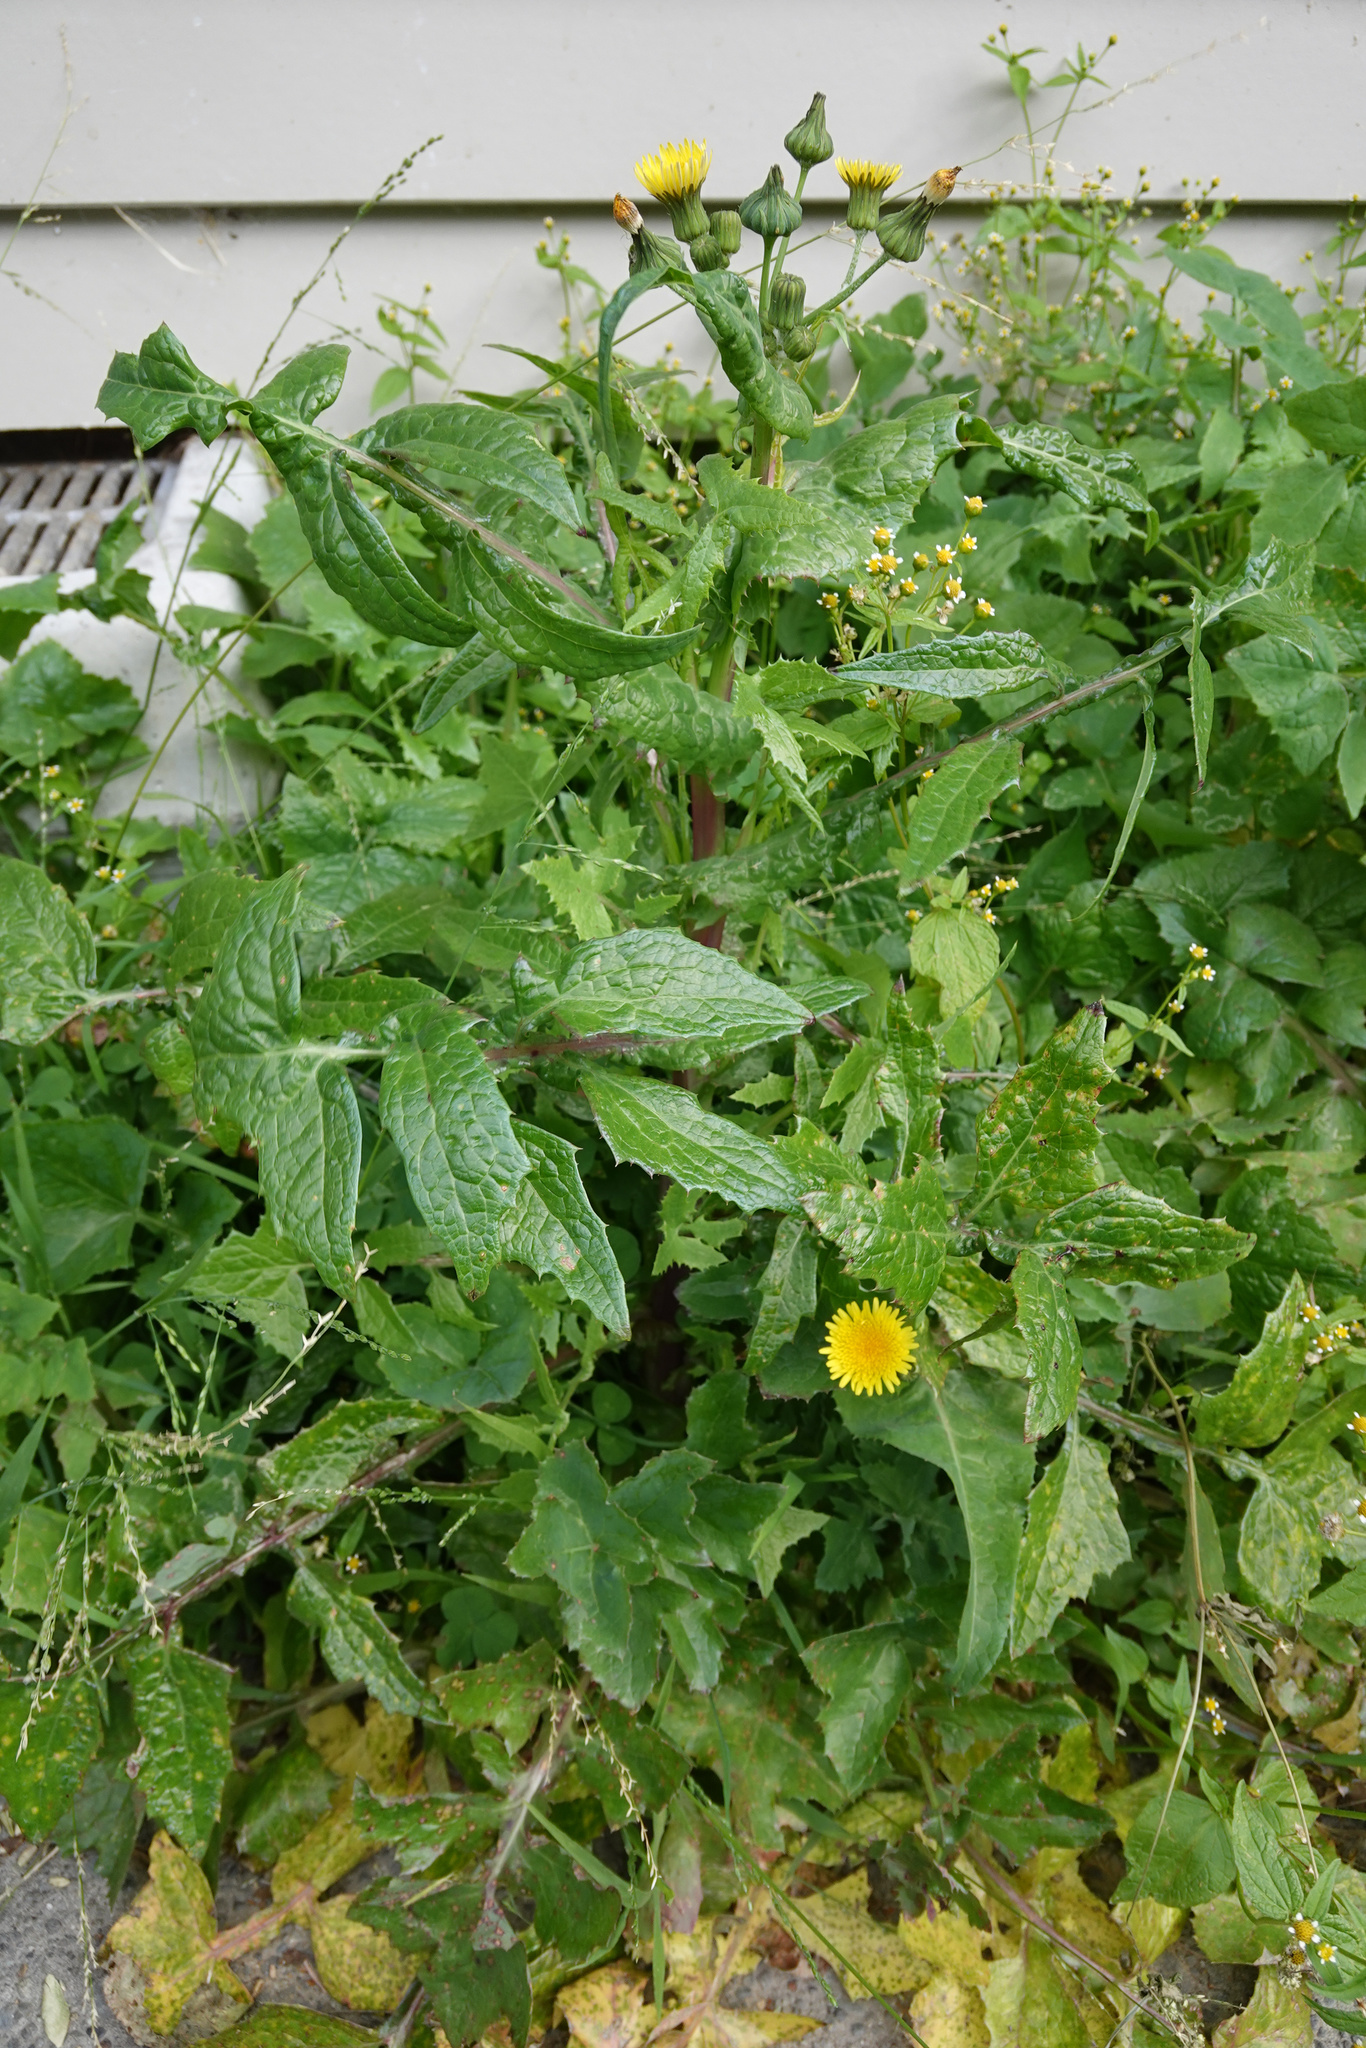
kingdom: Plantae
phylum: Tracheophyta
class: Magnoliopsida
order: Asterales
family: Asteraceae
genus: Sonchus
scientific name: Sonchus asper
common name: Prickly sow-thistle
